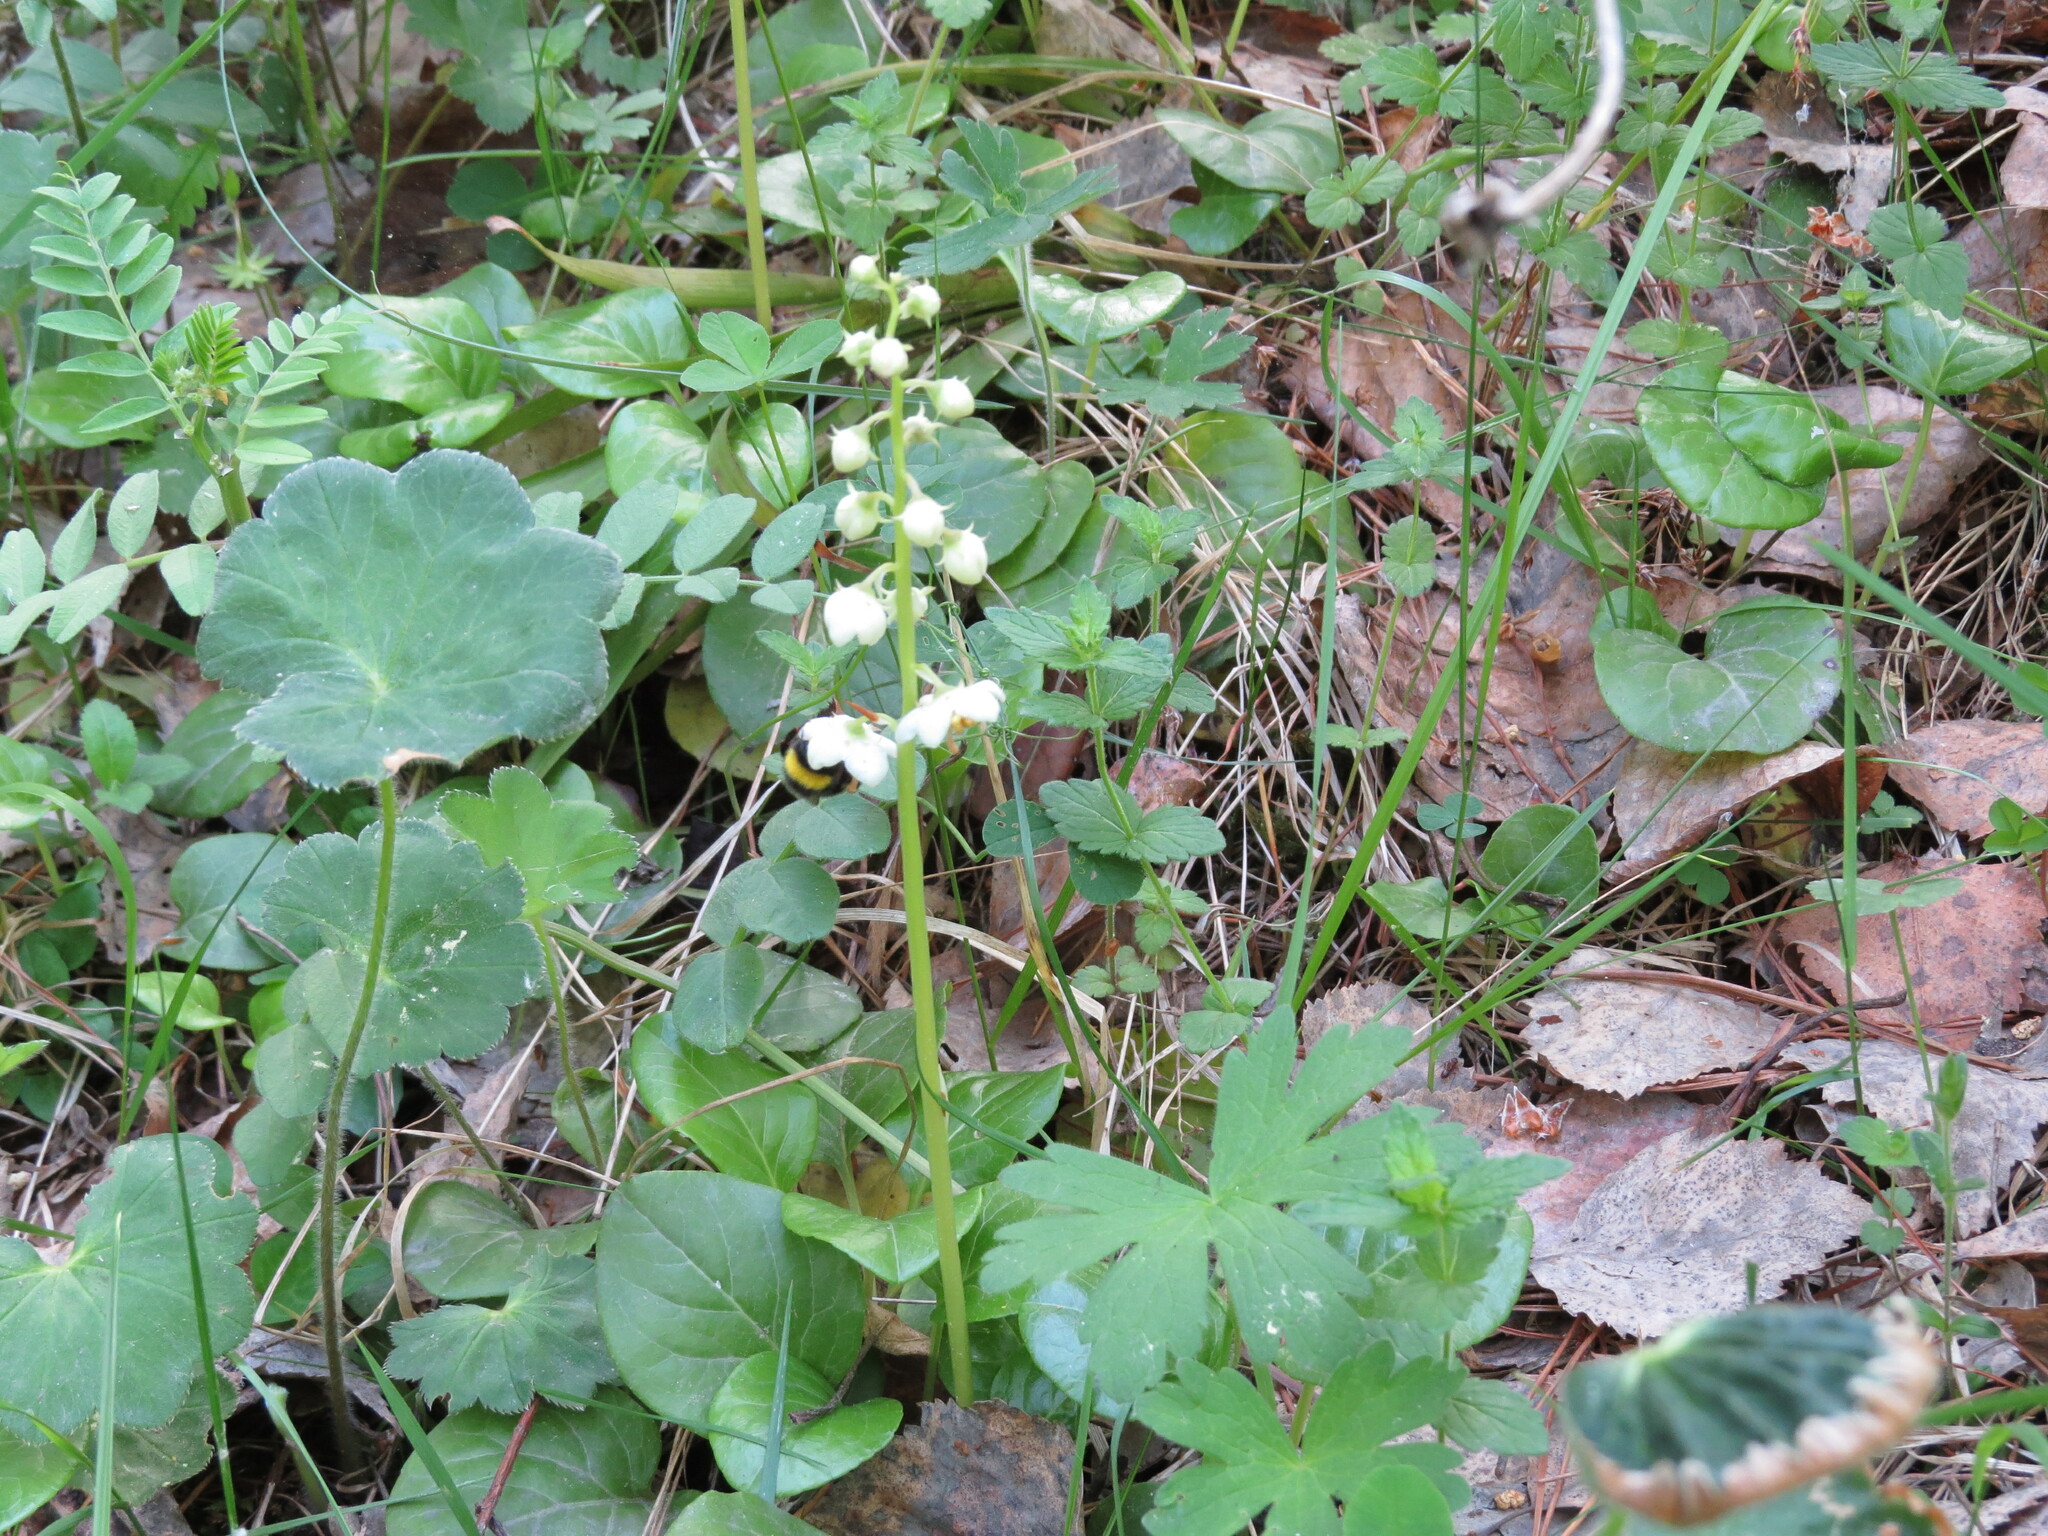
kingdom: Plantae
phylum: Tracheophyta
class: Magnoliopsida
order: Ericales
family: Ericaceae
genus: Pyrola
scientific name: Pyrola rotundifolia
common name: Round-leaved wintergreen
